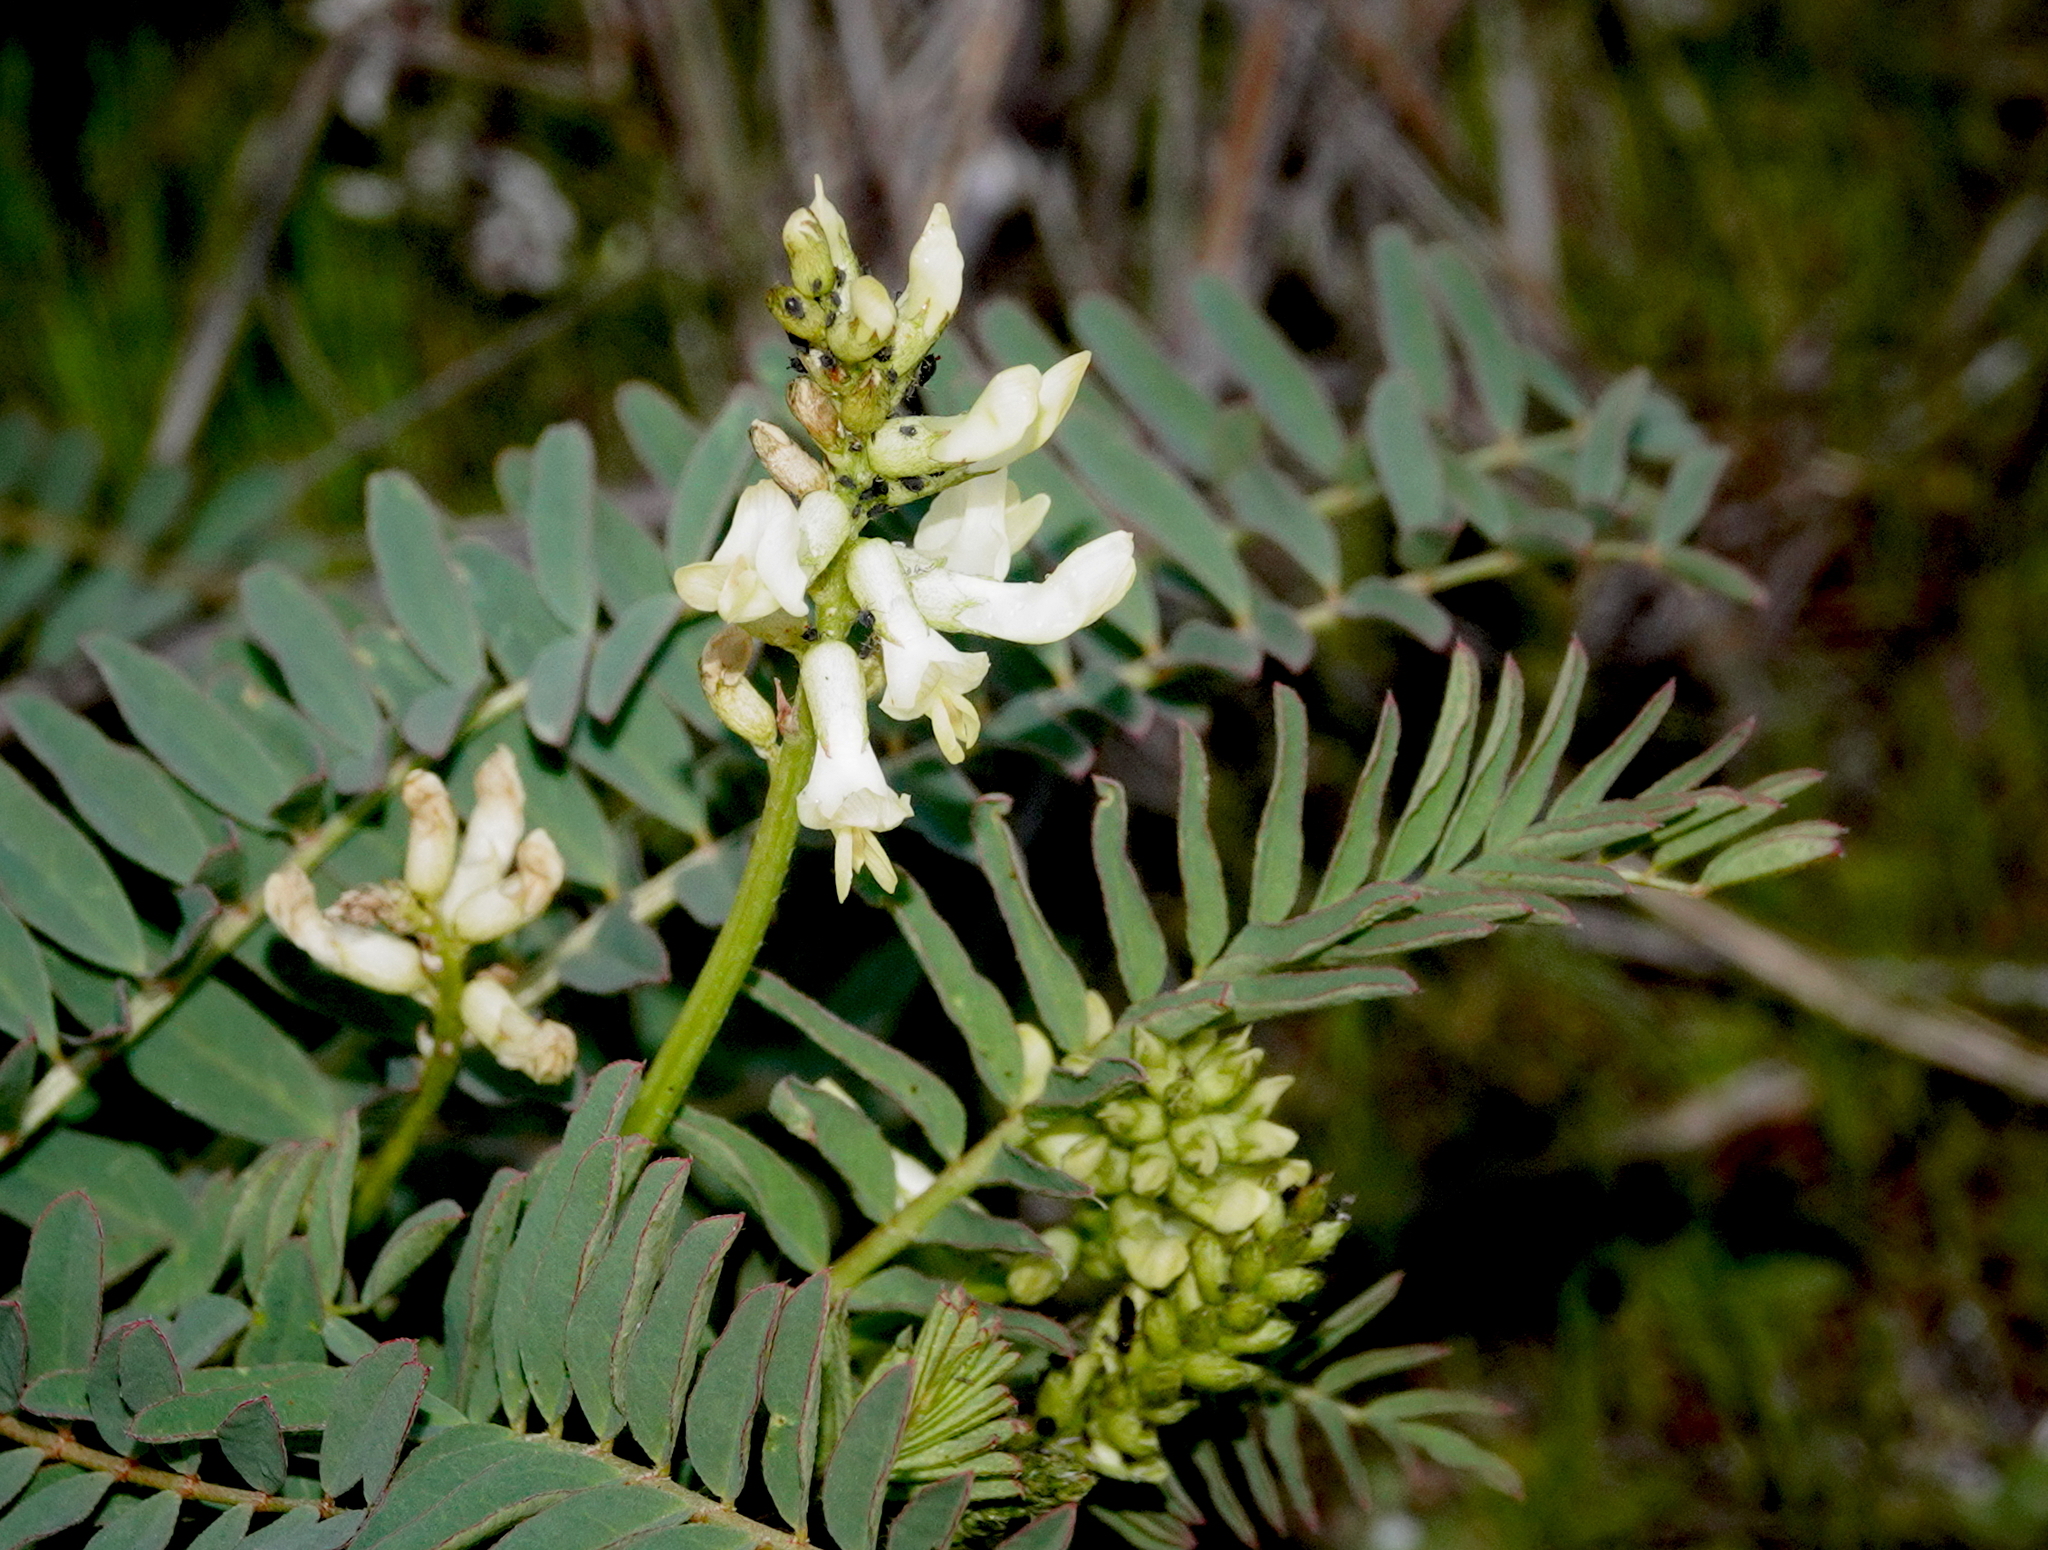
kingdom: Plantae
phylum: Tracheophyta
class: Magnoliopsida
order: Fabales
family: Fabaceae
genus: Astragalus
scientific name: Astragalus pomonensis
